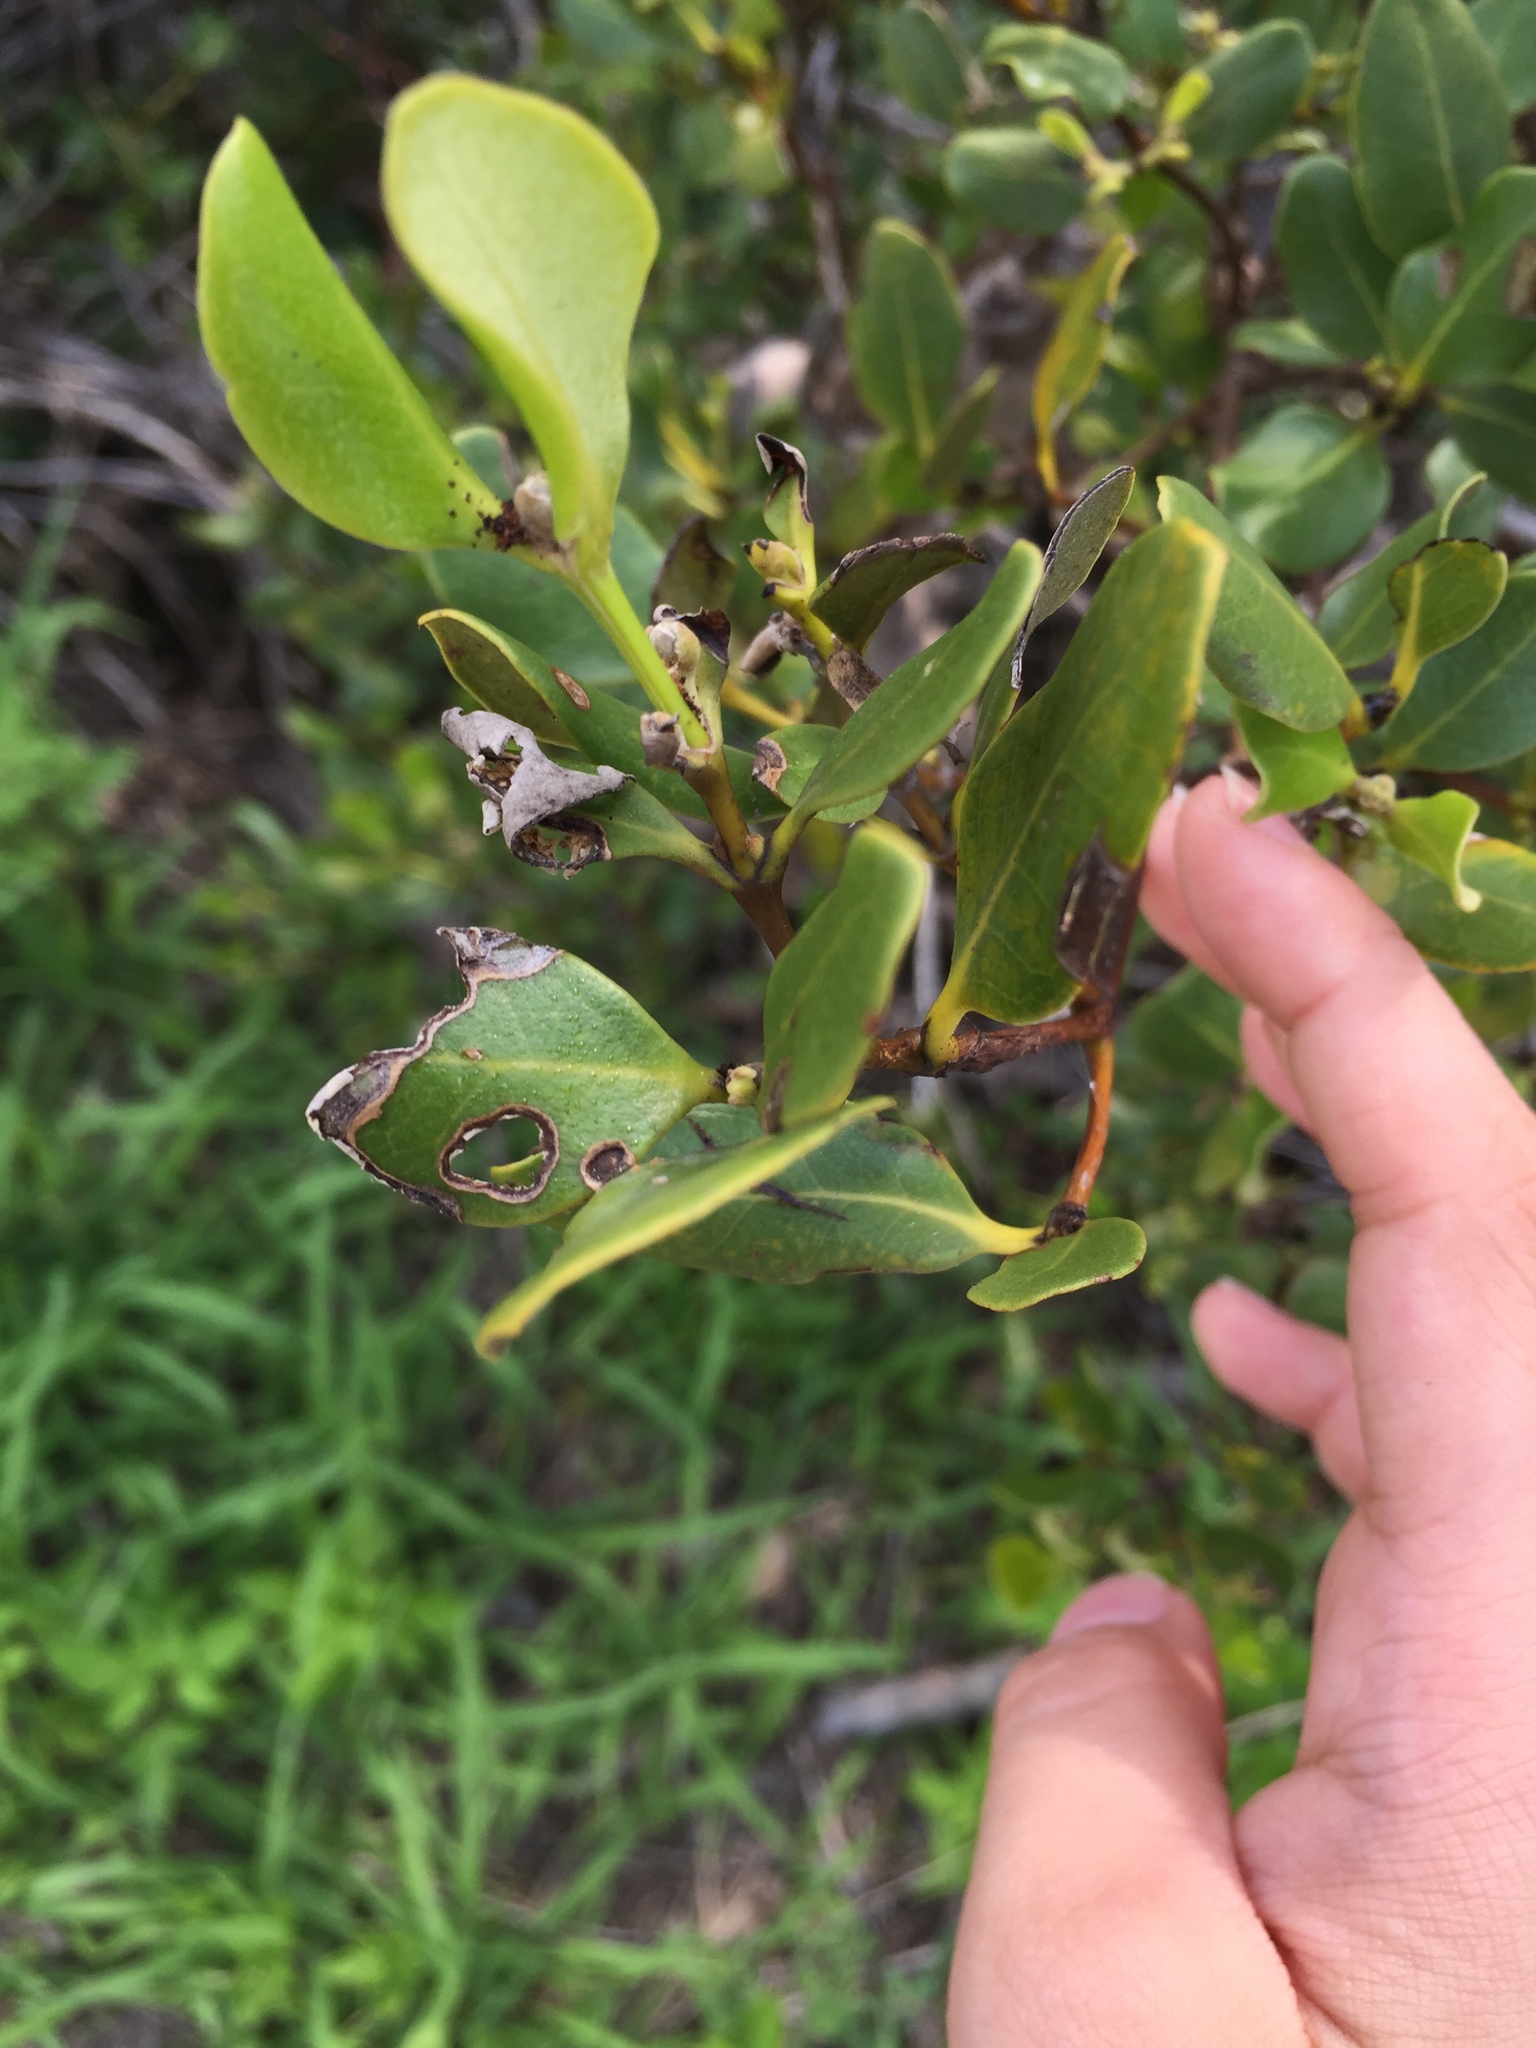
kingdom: Plantae
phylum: Tracheophyta
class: Magnoliopsida
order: Lamiales
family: Acanthaceae
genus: Avicennia
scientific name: Avicennia marina
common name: Gray mangrove
